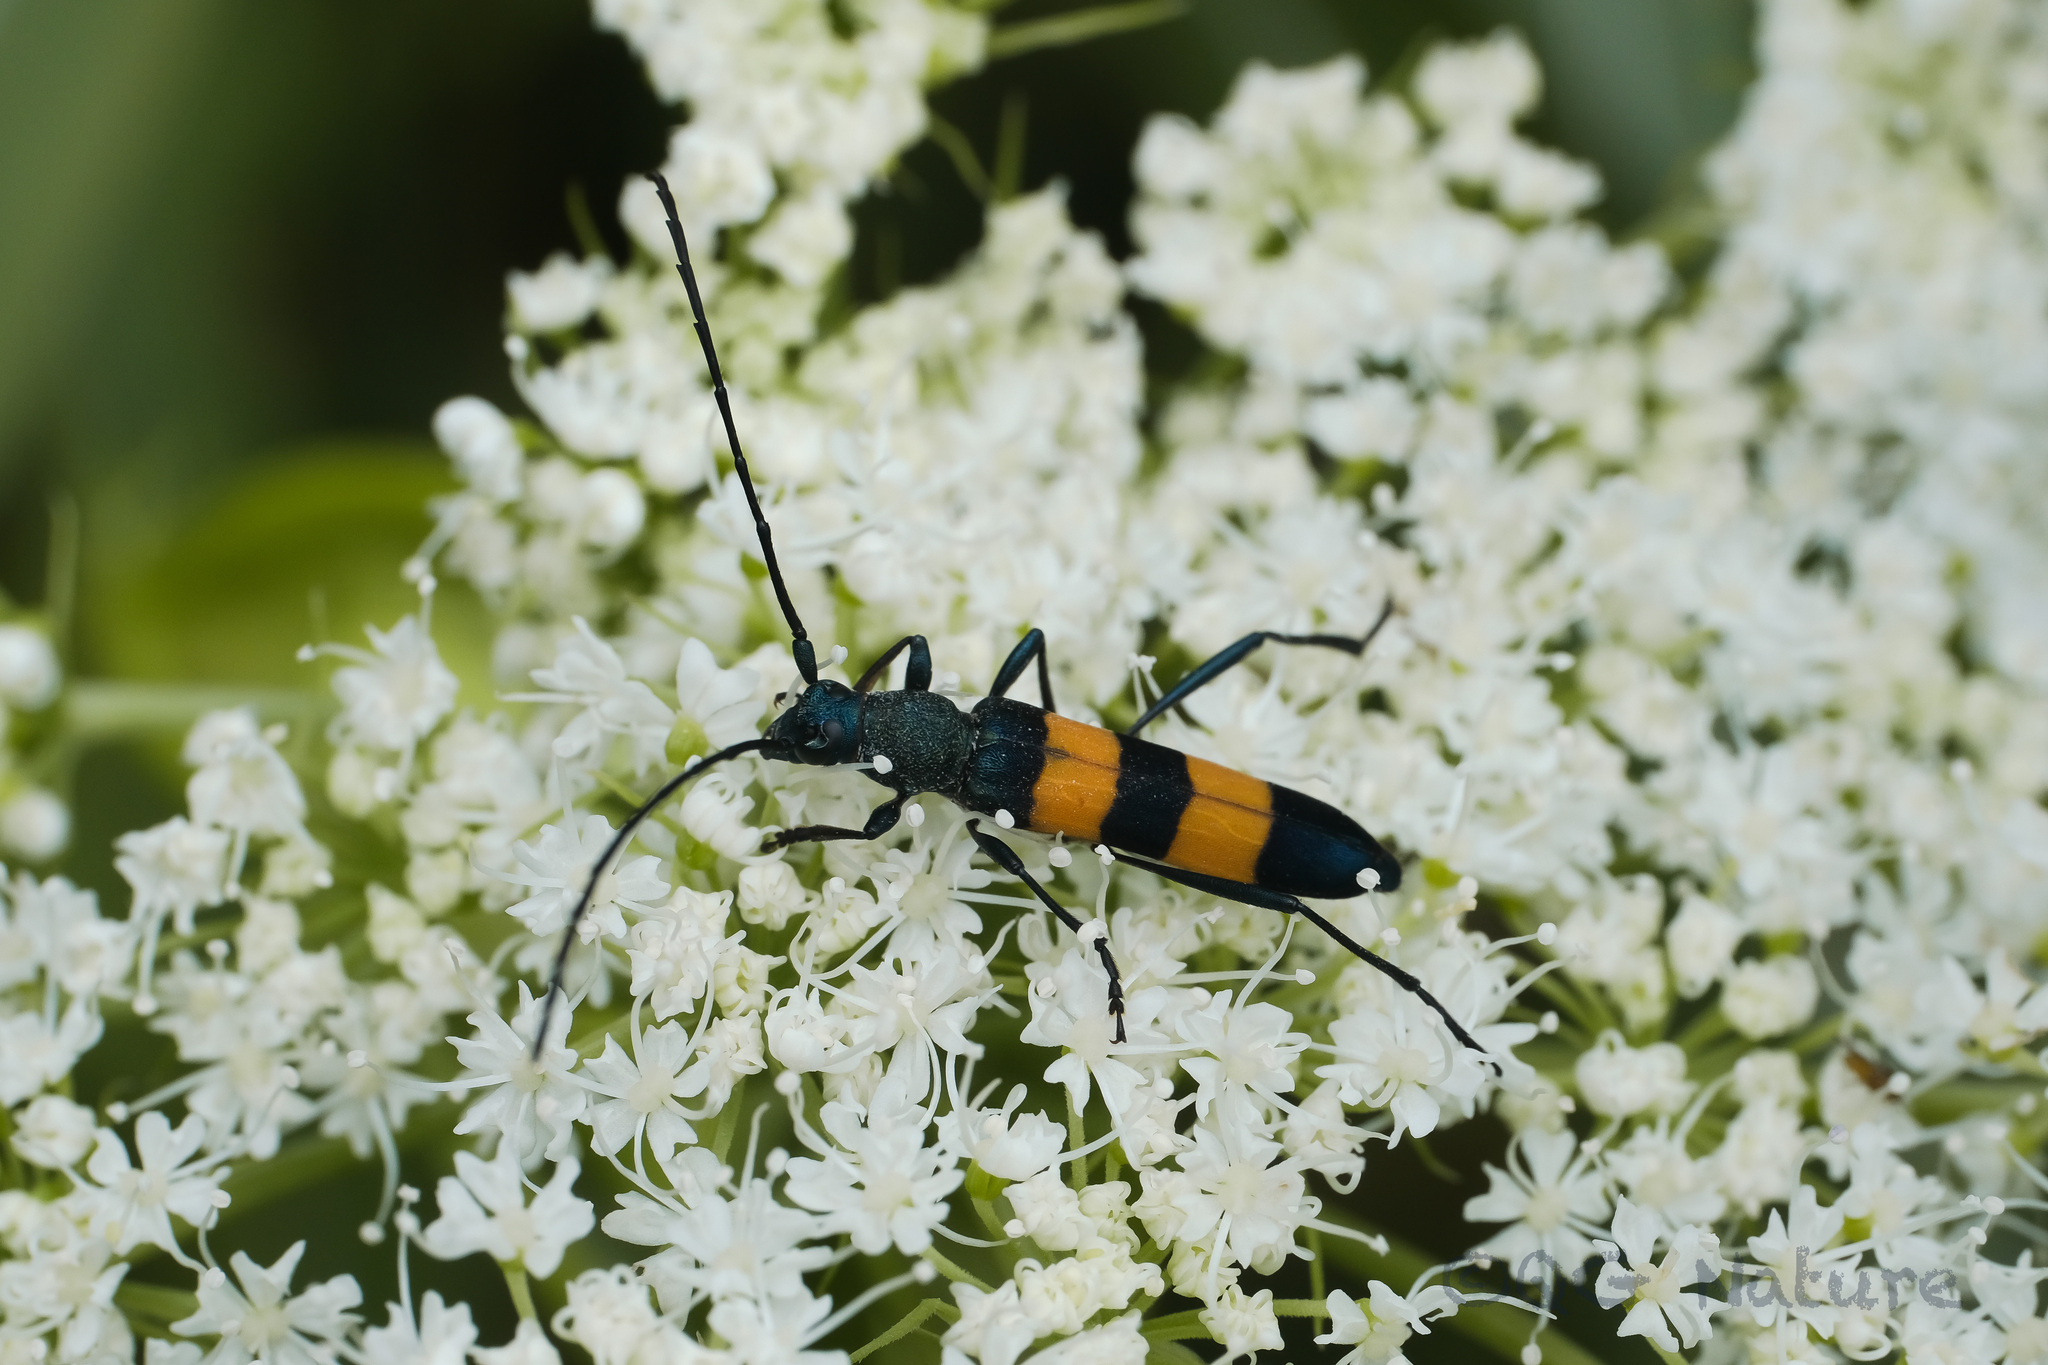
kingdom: Animalia
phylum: Arthropoda
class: Insecta
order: Coleoptera
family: Cerambycidae
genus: Polyzonus
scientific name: Polyzonus fasciatus
